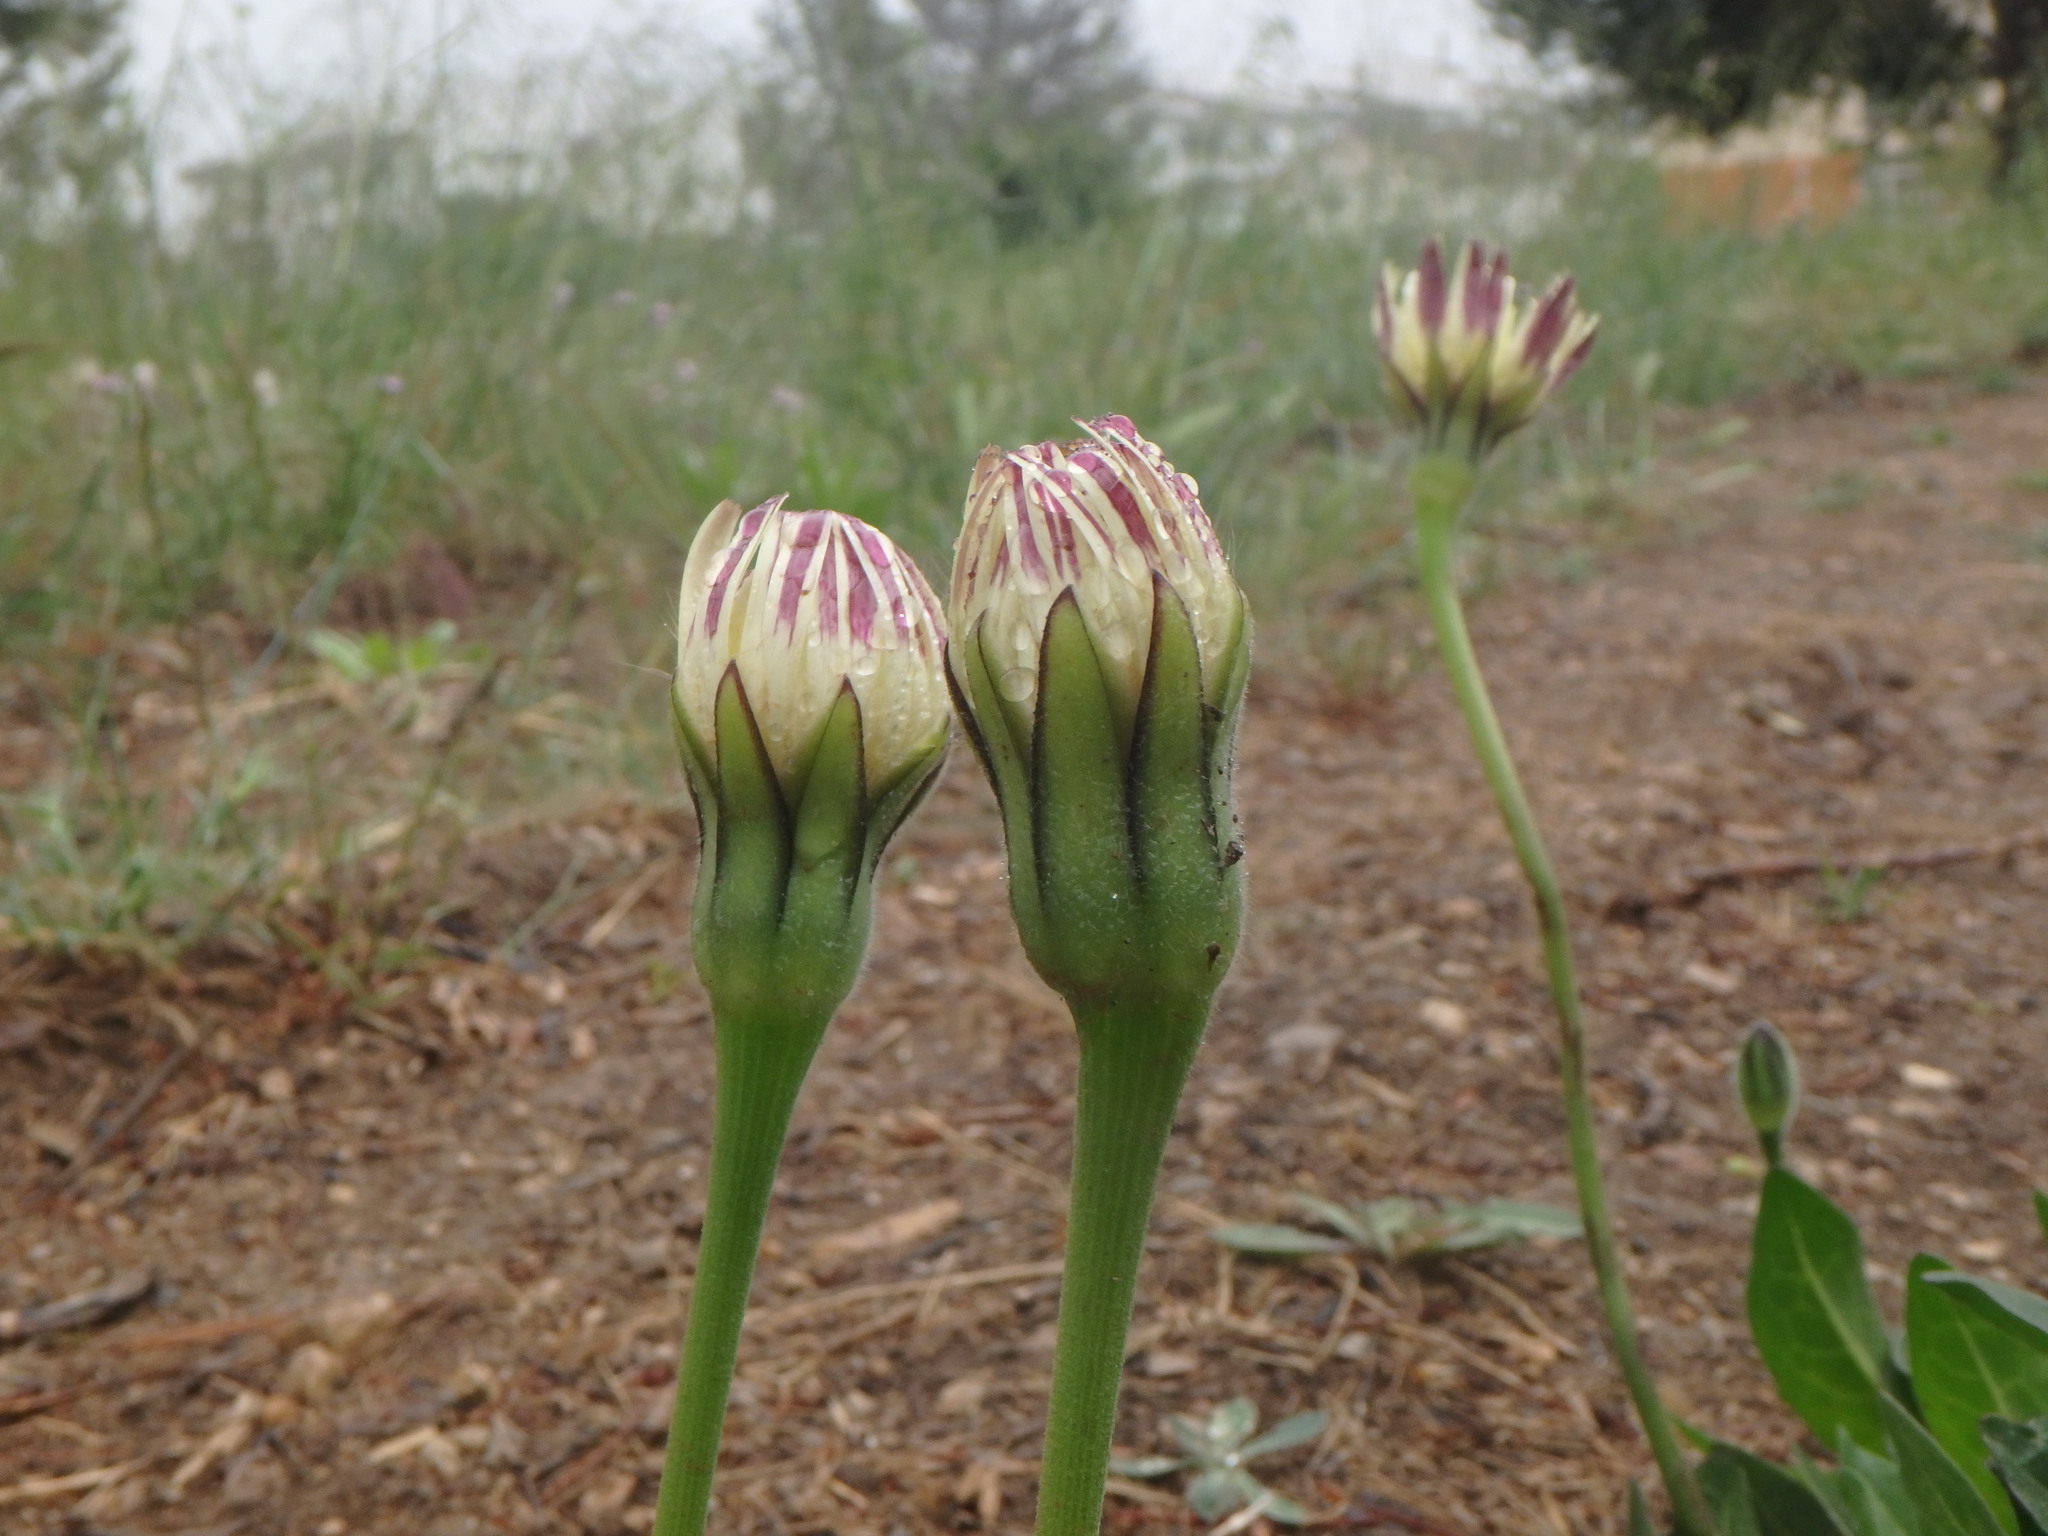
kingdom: Plantae
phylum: Tracheophyta
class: Magnoliopsida
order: Asterales
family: Asteraceae
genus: Urospermum
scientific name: Urospermum dalechampii
